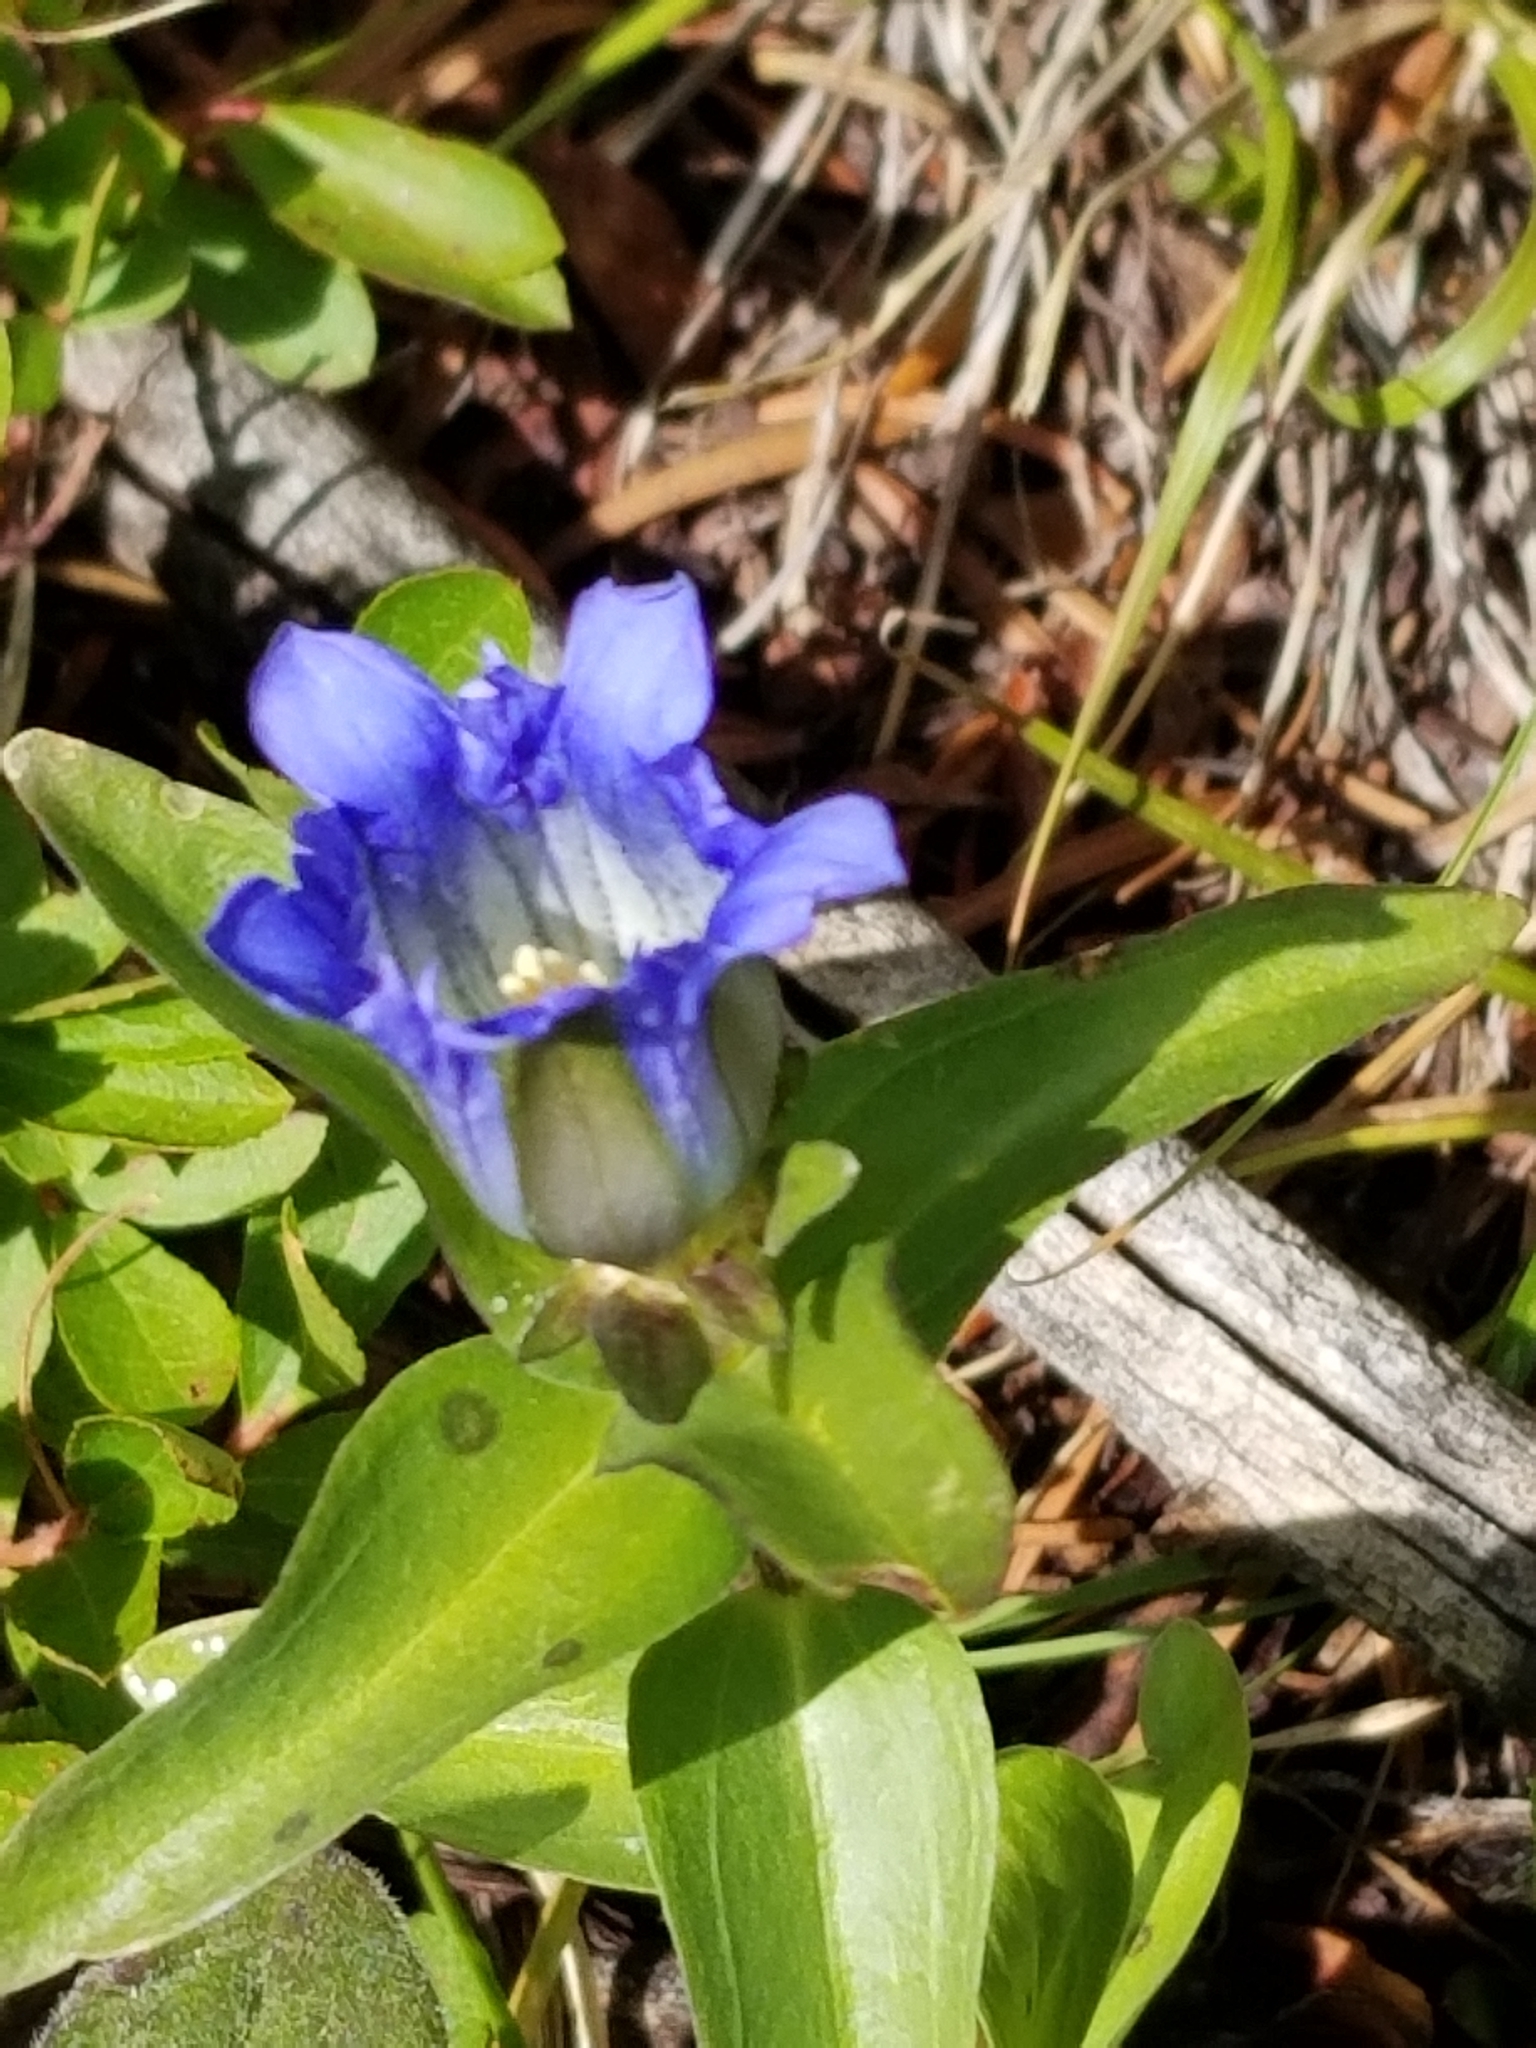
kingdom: Plantae
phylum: Tracheophyta
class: Magnoliopsida
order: Gentianales
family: Gentianaceae
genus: Gentiana
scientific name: Gentiana parryi
